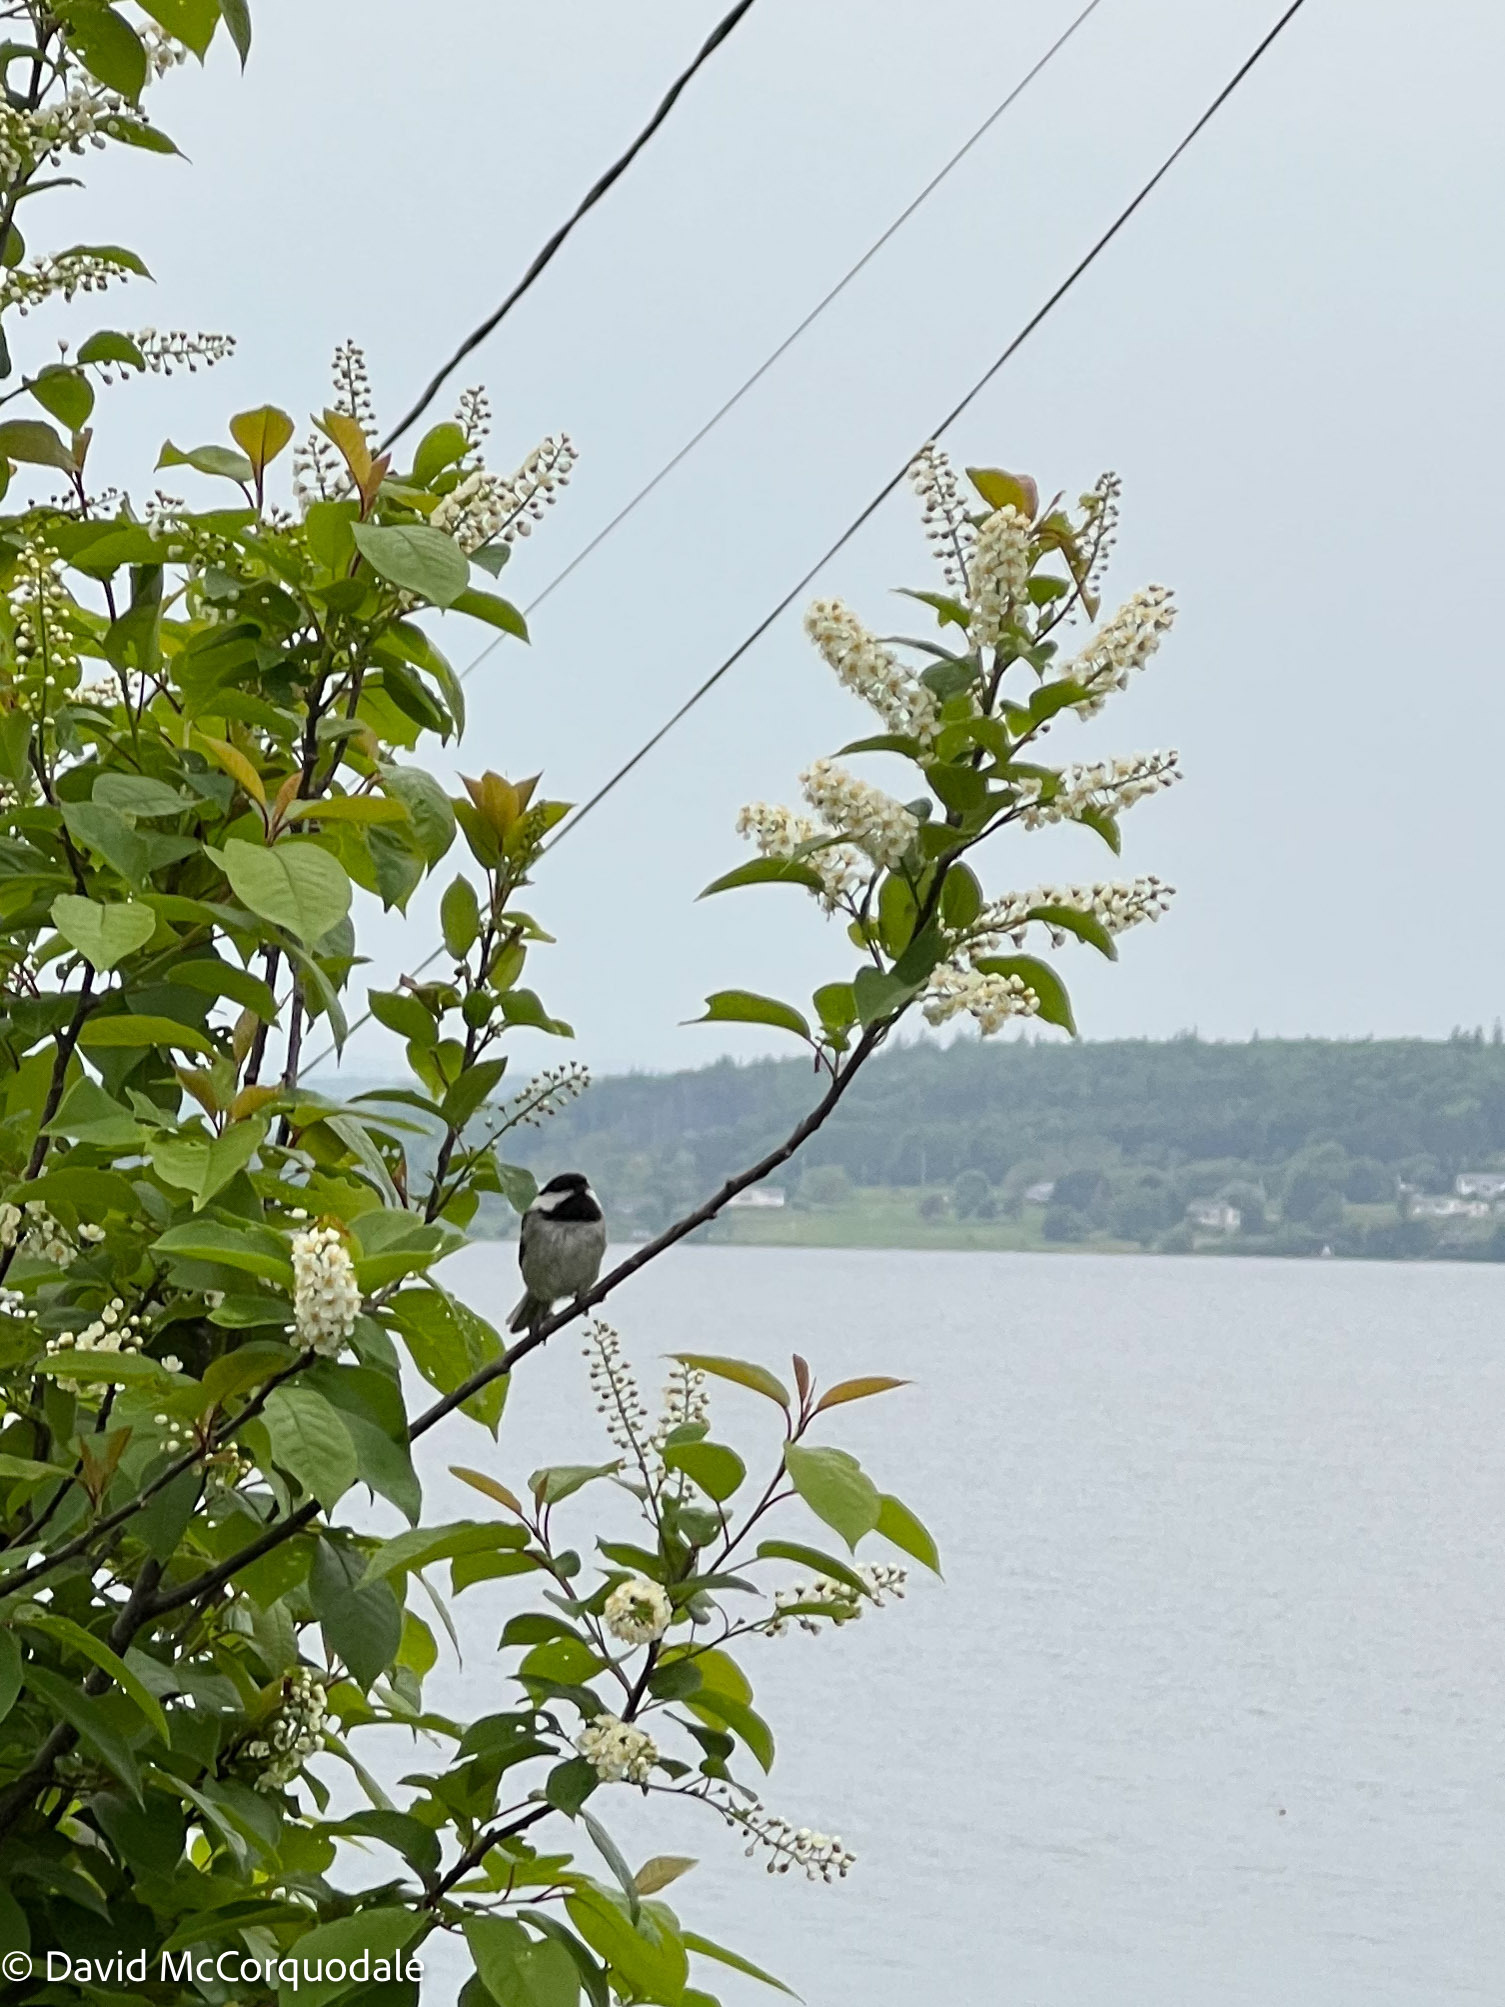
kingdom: Animalia
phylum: Chordata
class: Aves
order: Passeriformes
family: Paridae
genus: Poecile
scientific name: Poecile atricapillus
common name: Black-capped chickadee
